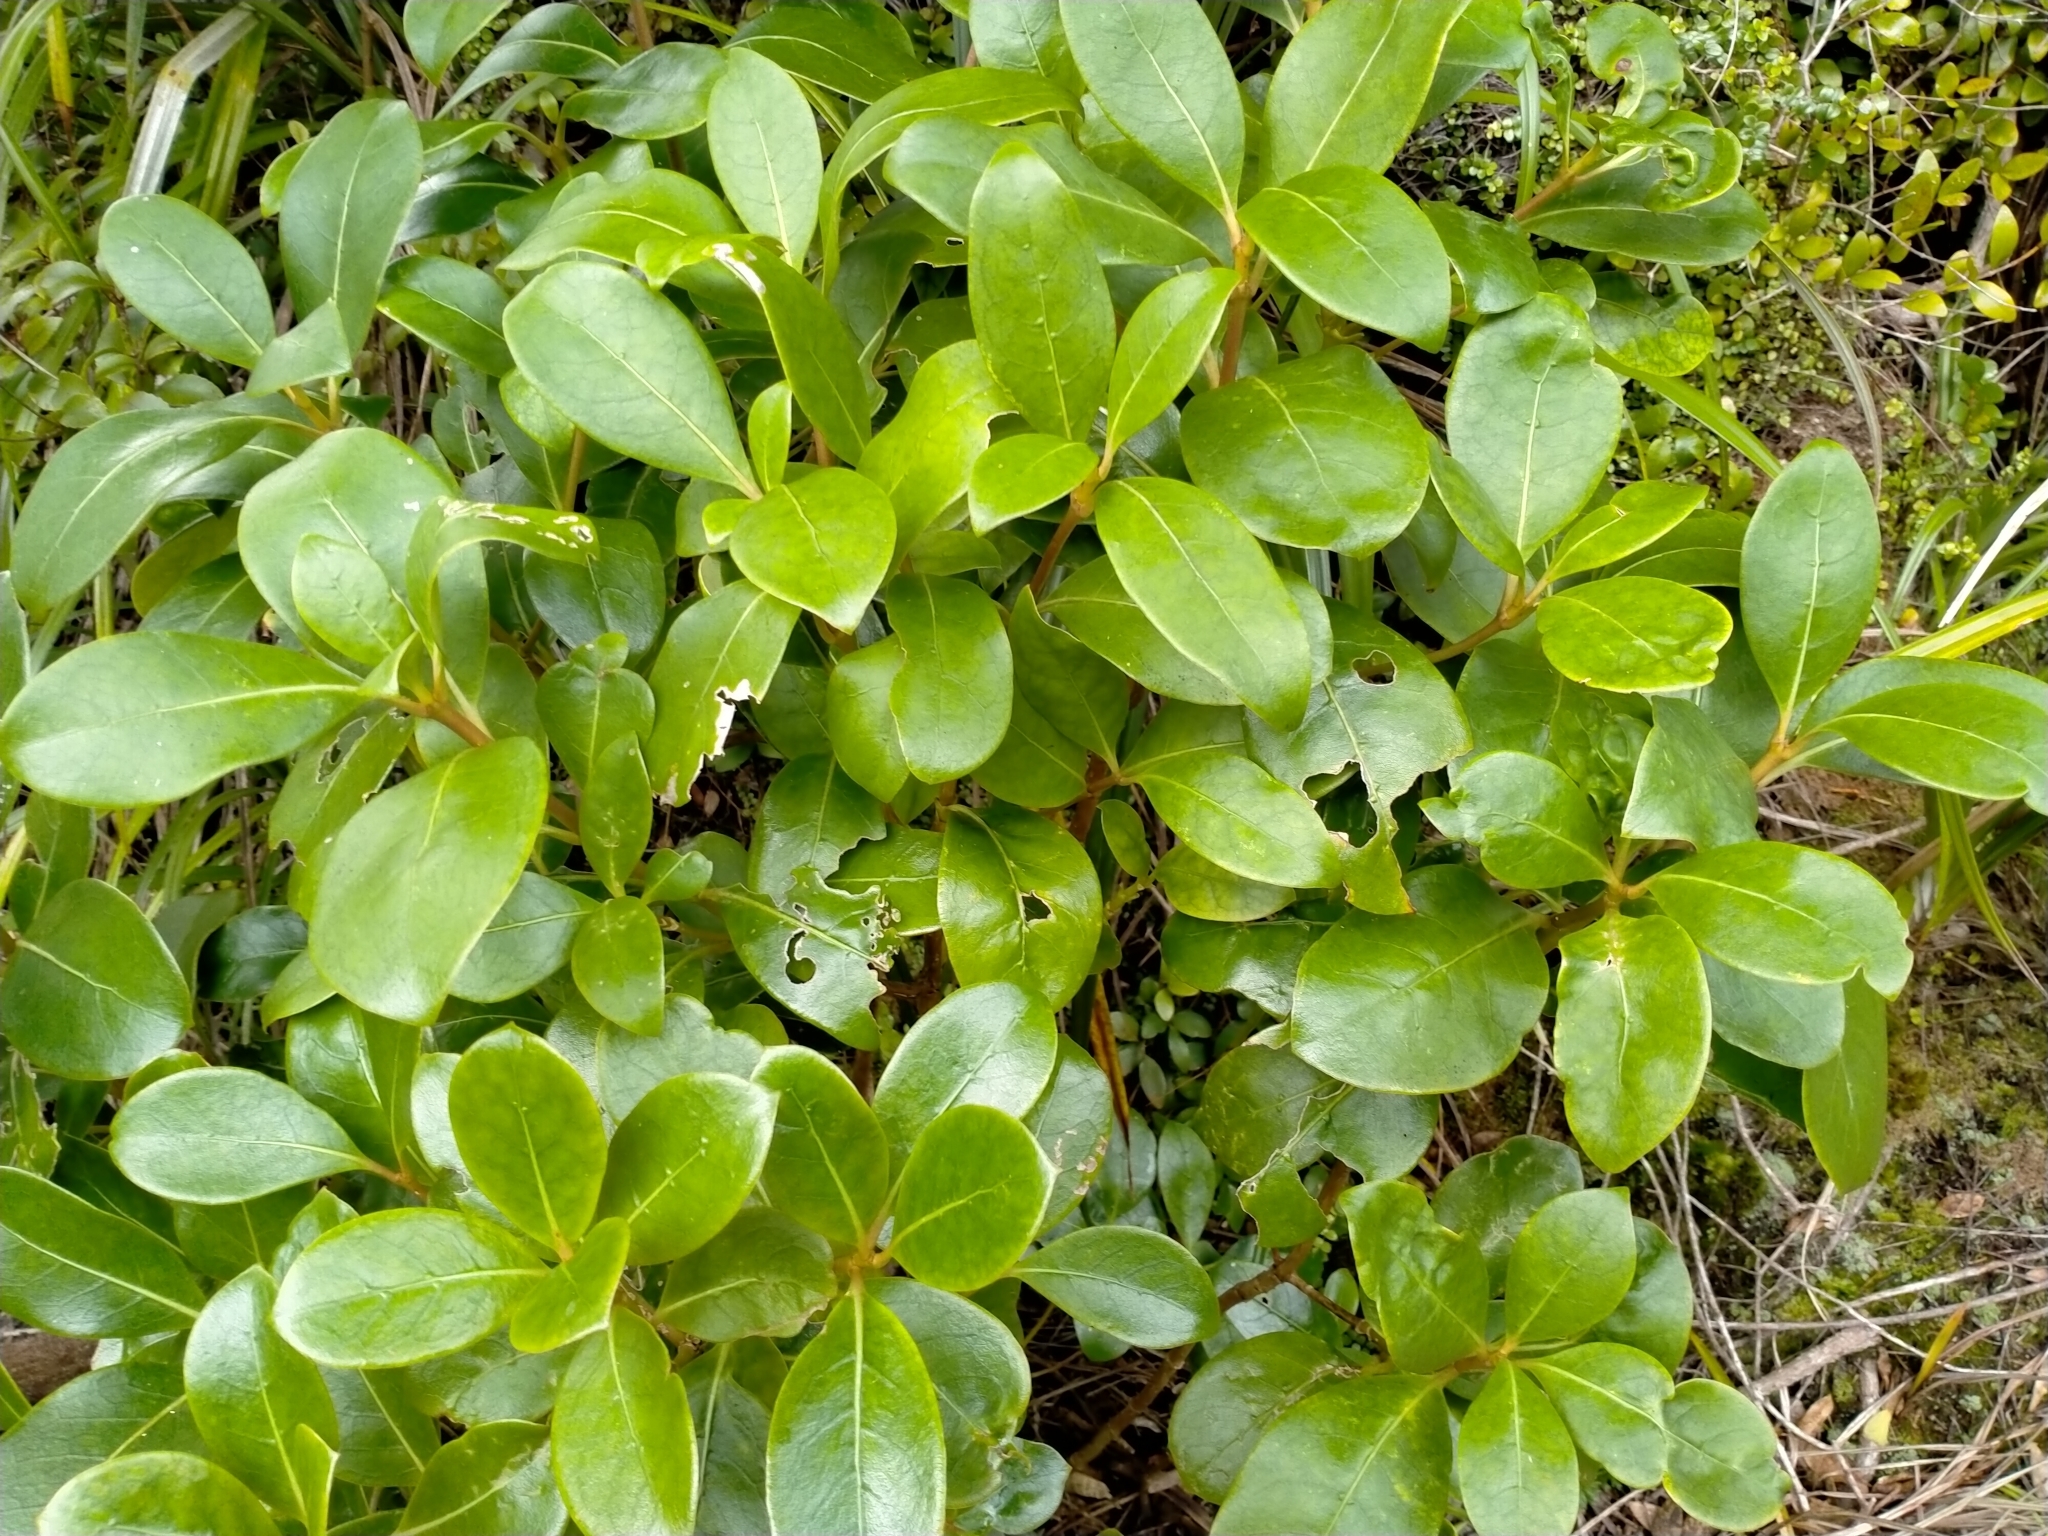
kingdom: Plantae
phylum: Tracheophyta
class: Magnoliopsida
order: Gentianales
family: Rubiaceae
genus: Coprosma
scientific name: Coprosma lucida
